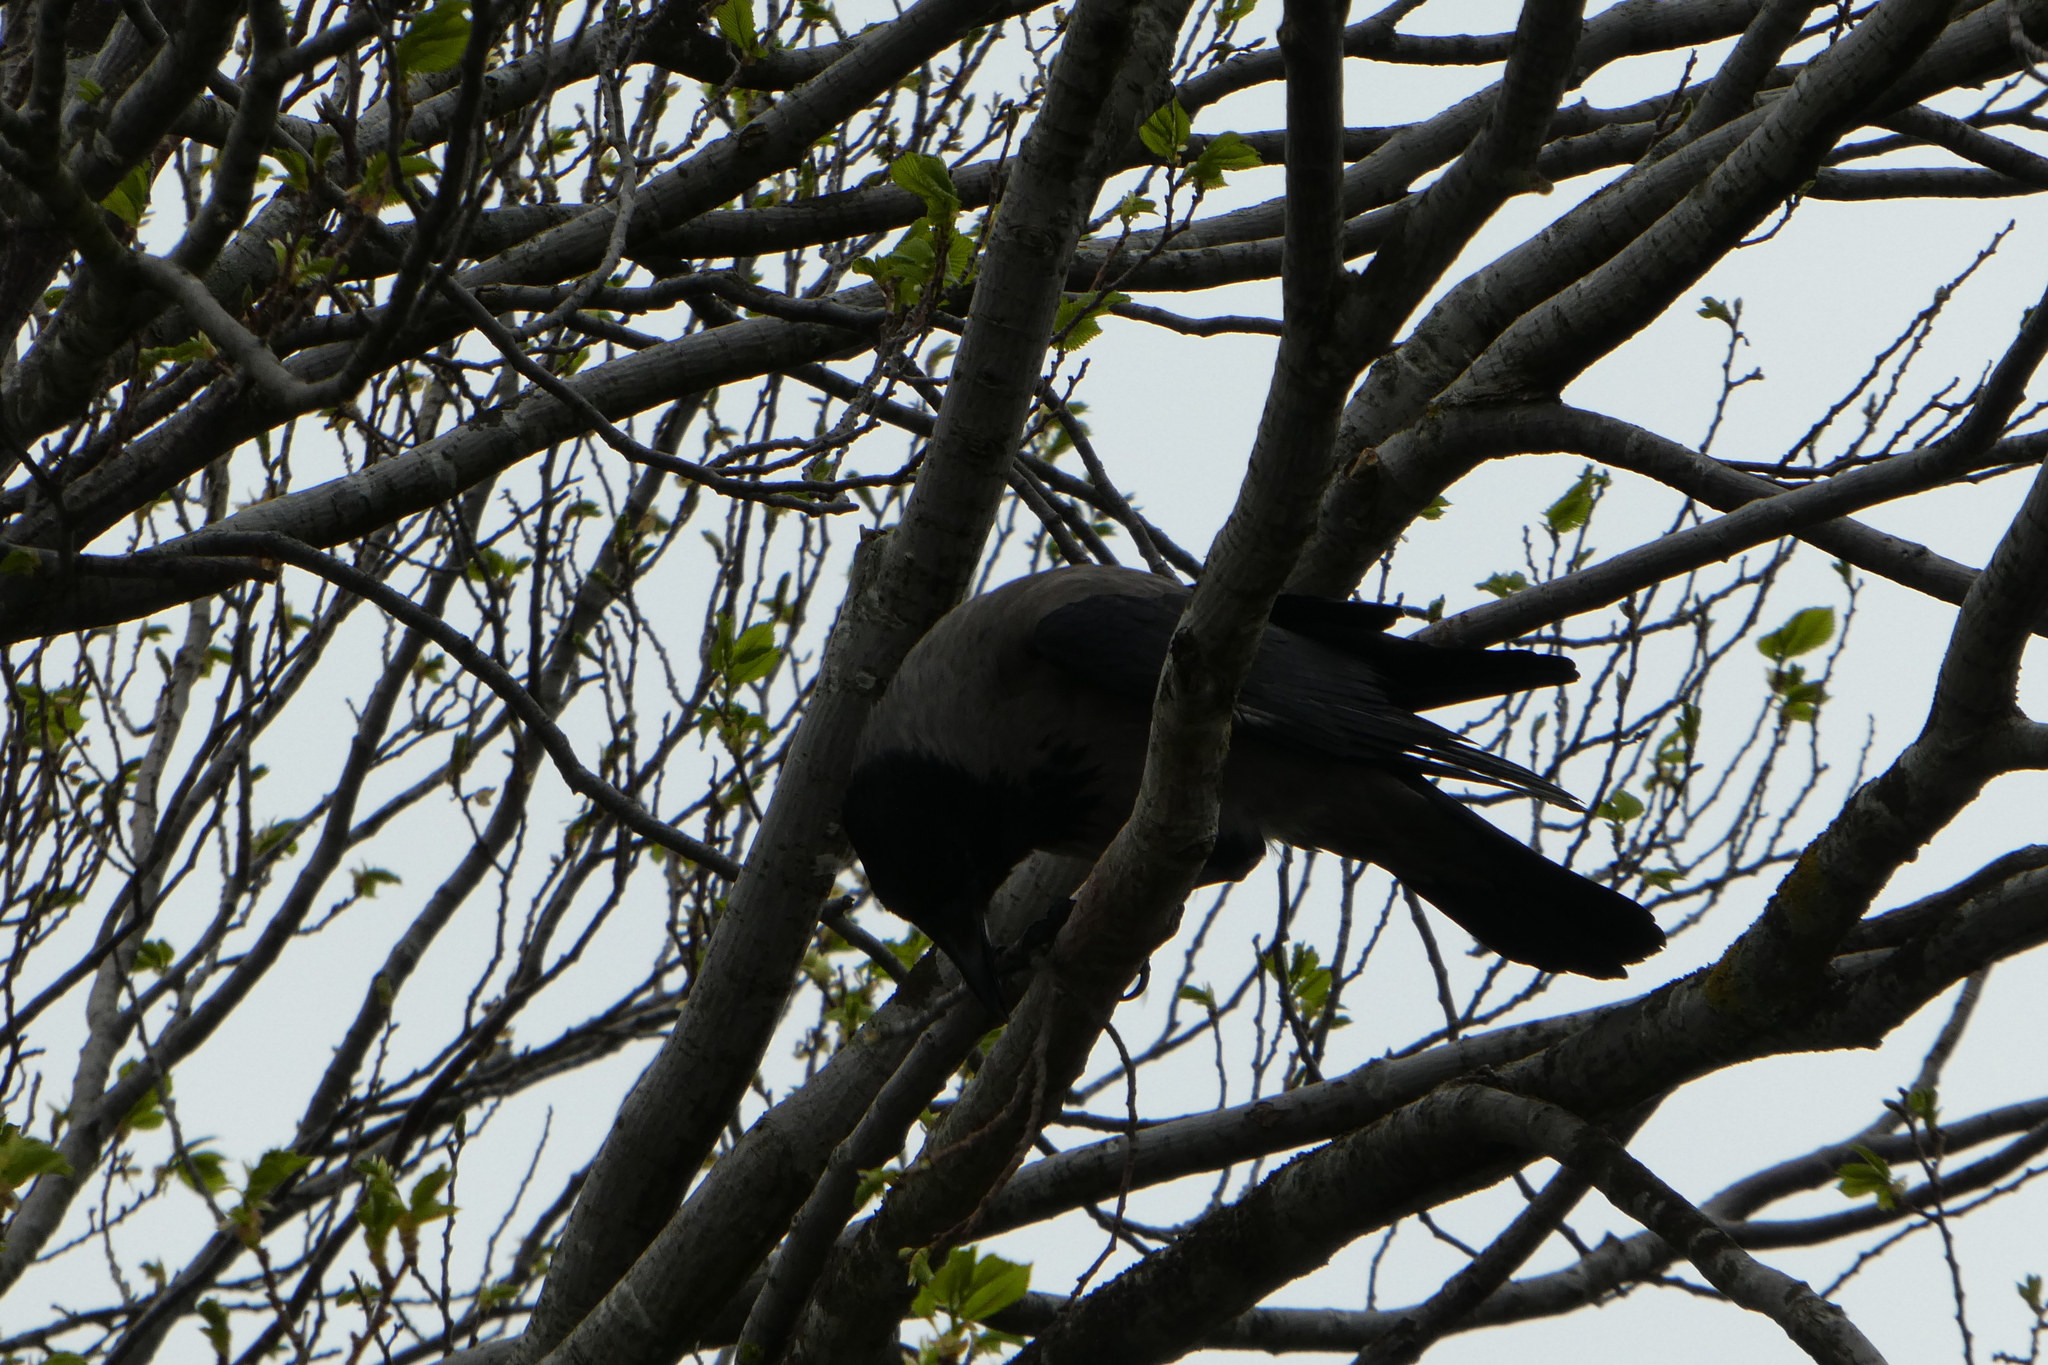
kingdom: Animalia
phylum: Chordata
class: Aves
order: Passeriformes
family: Corvidae
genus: Corvus
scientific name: Corvus cornix
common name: Hooded crow
